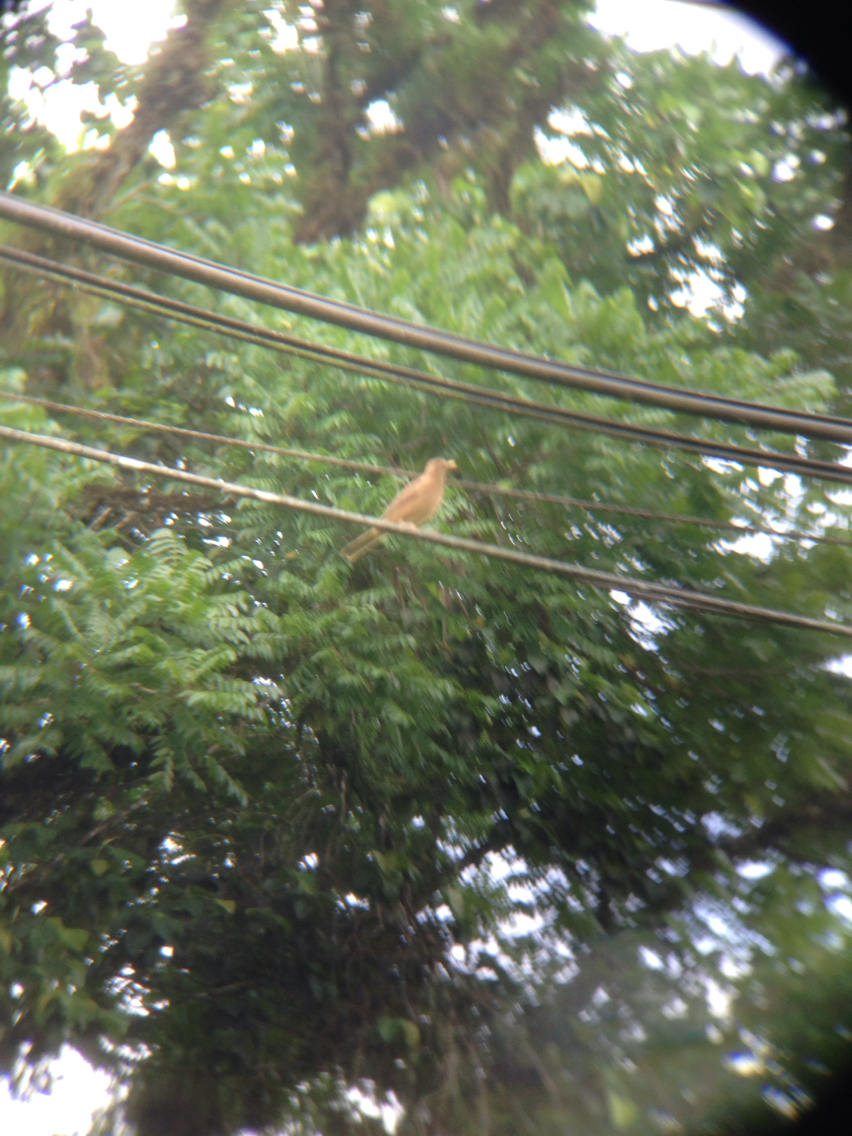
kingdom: Animalia
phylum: Chordata
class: Aves
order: Passeriformes
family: Turdidae
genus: Turdus
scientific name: Turdus grayi
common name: Clay-colored thrush
